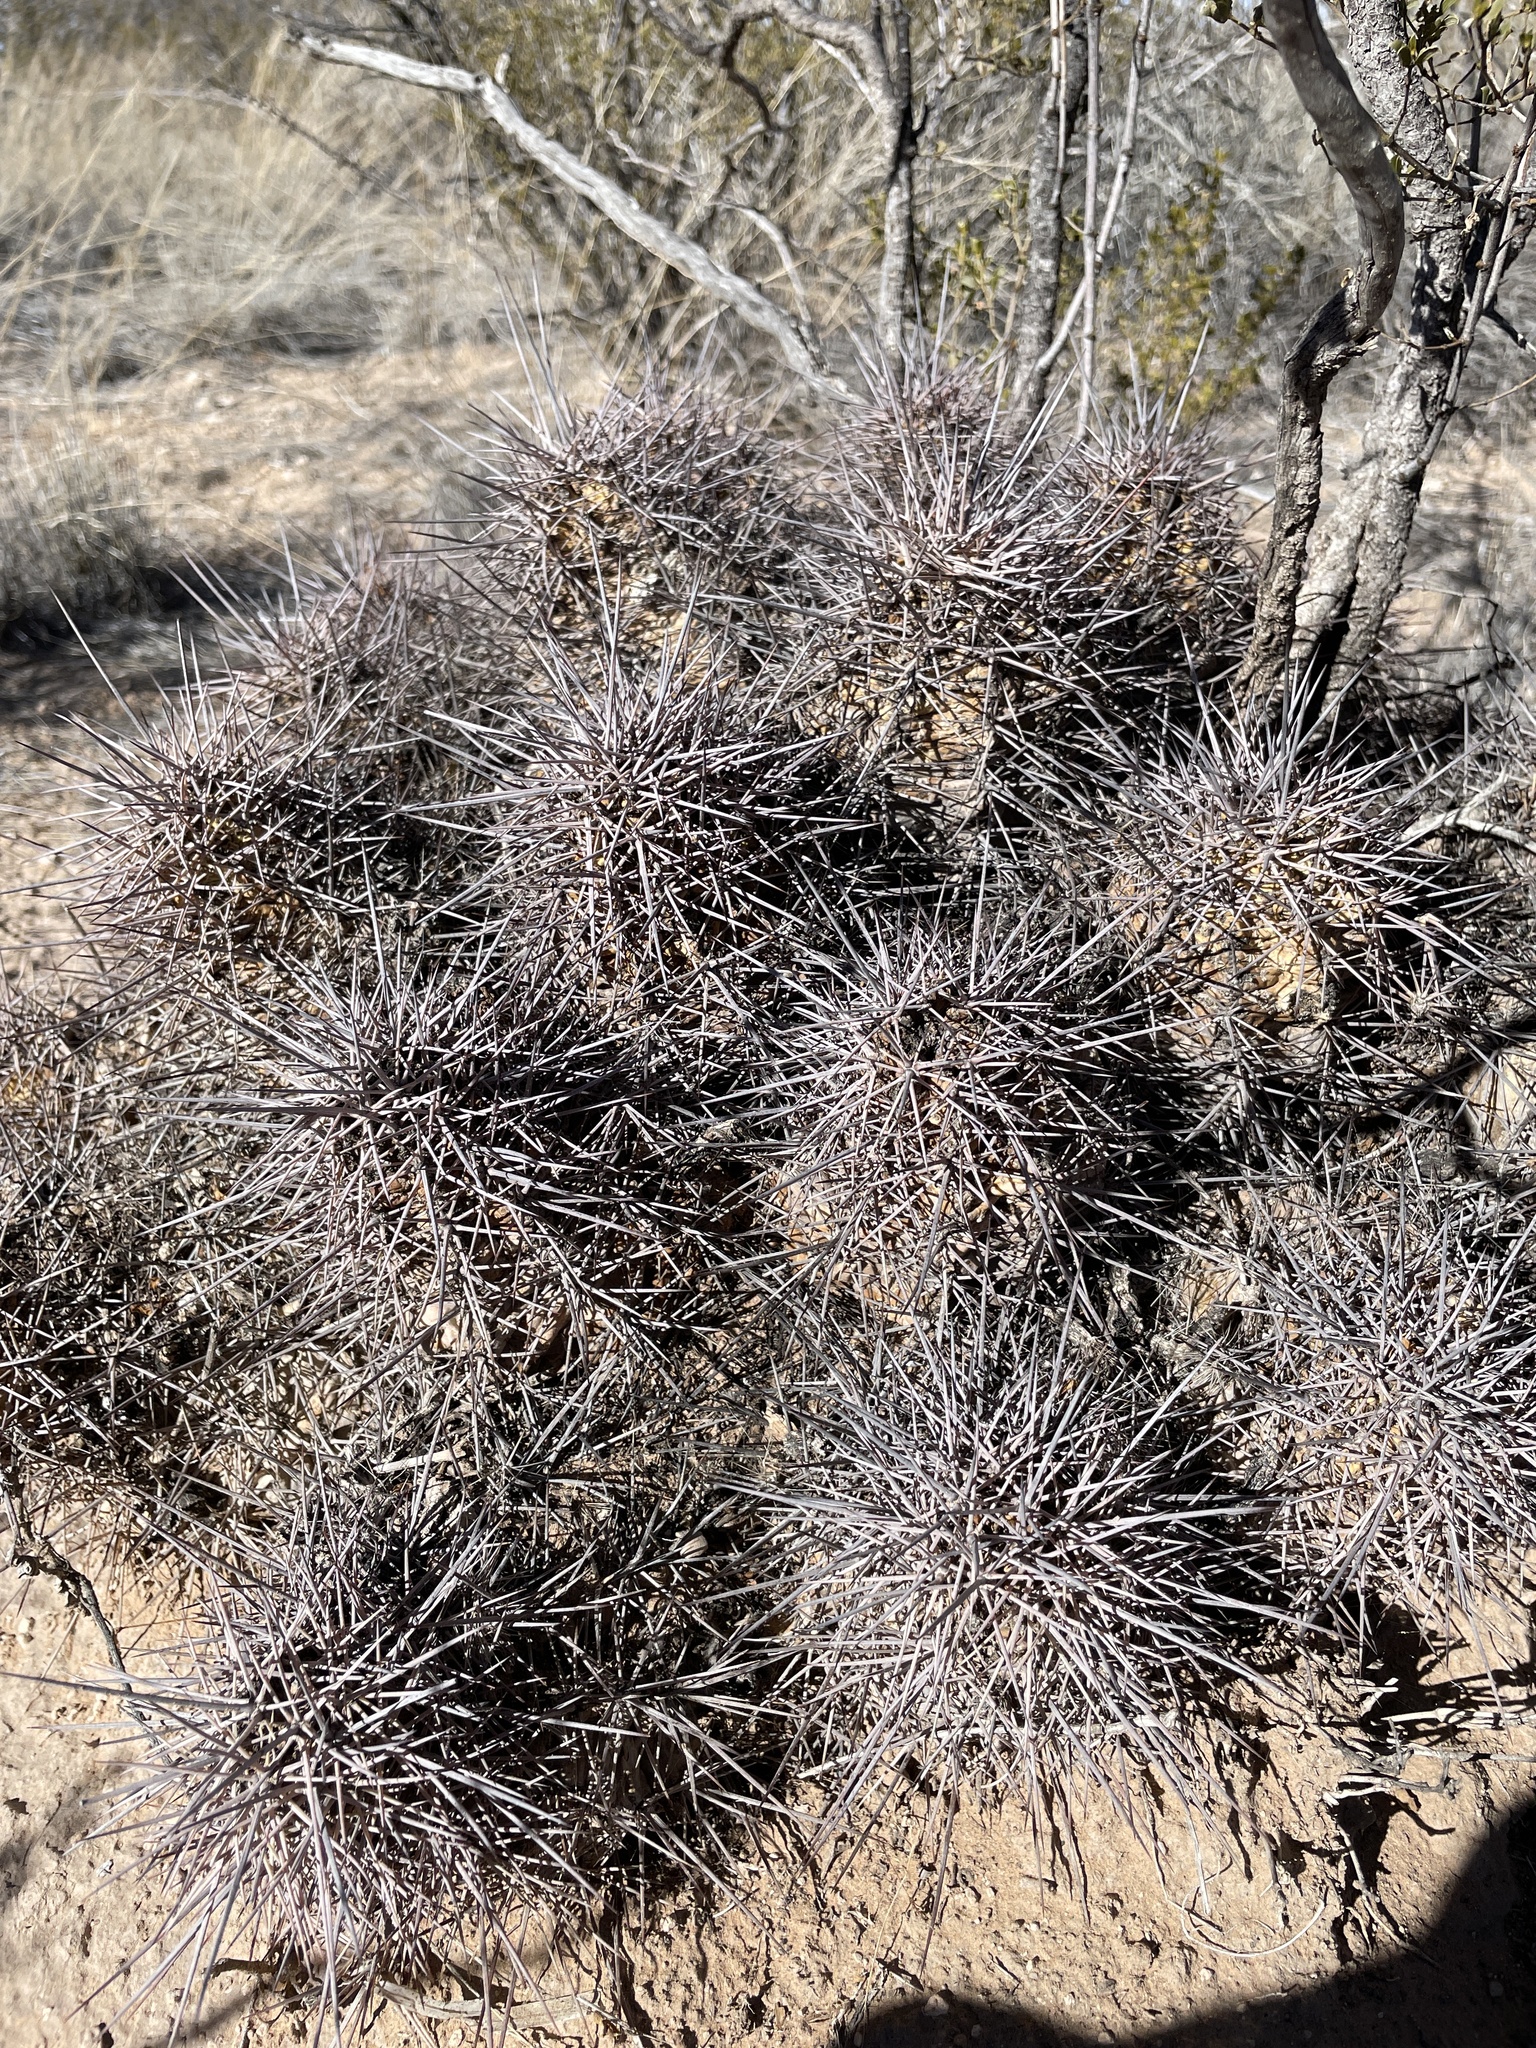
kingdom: Plantae
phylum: Tracheophyta
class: Magnoliopsida
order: Caryophyllales
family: Cactaceae
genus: Echinocereus
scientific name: Echinocereus coccineus
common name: Scarlet hedgehog cactus
